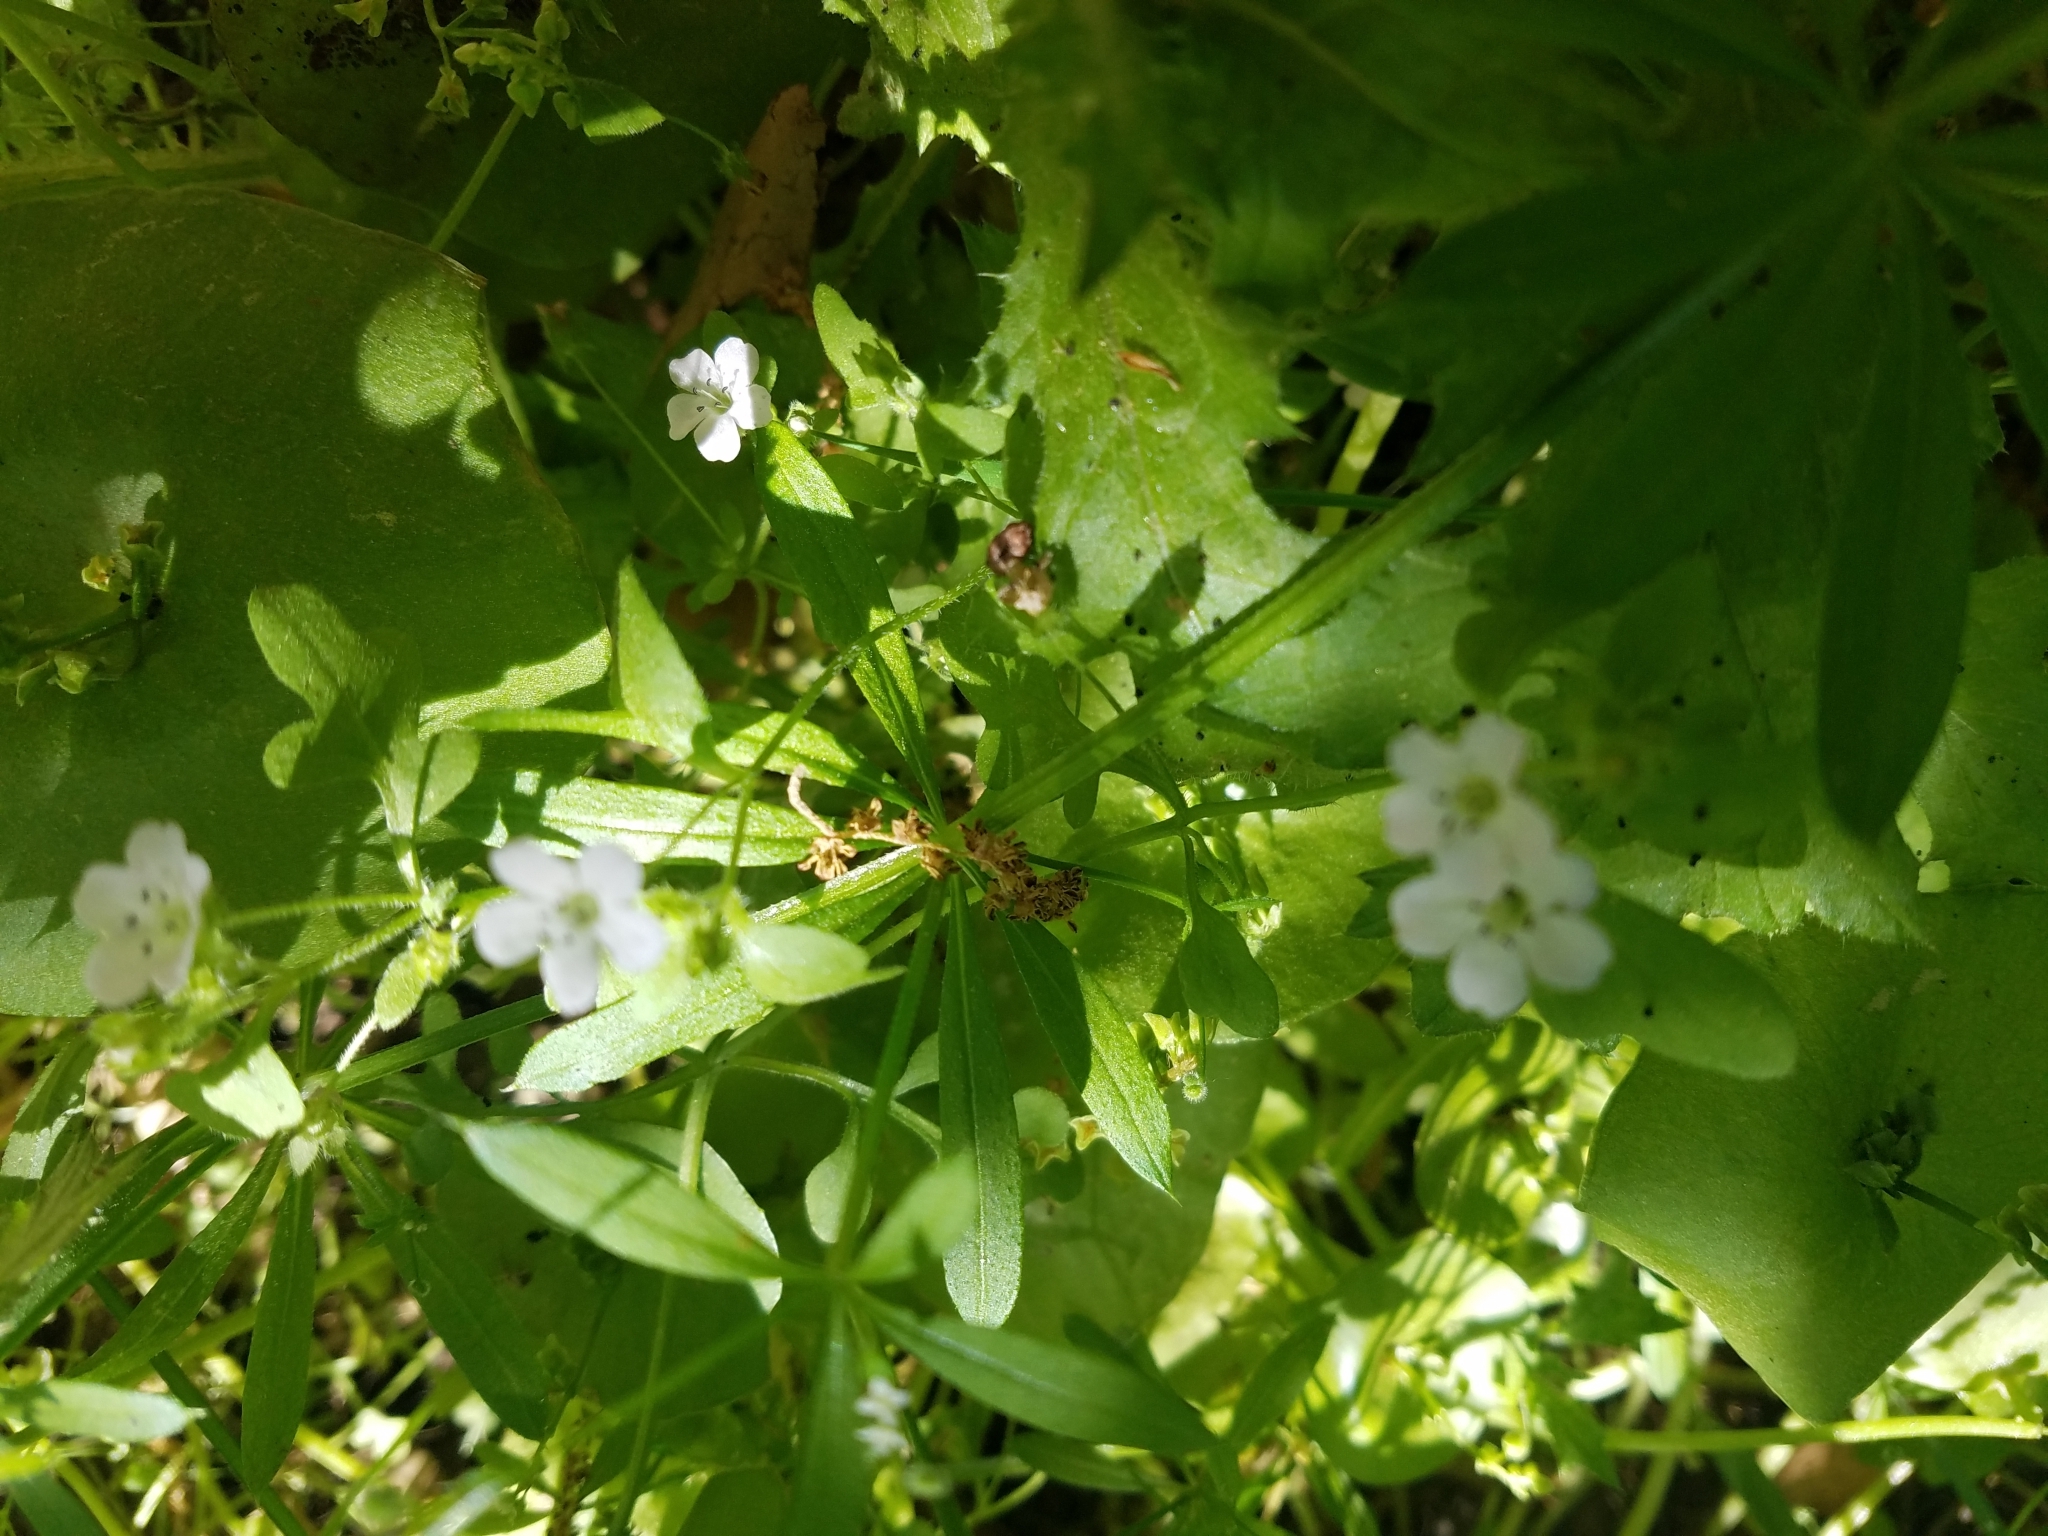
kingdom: Plantae
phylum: Tracheophyta
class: Magnoliopsida
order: Boraginales
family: Hydrophyllaceae
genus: Nemophila
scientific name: Nemophila heterophylla
